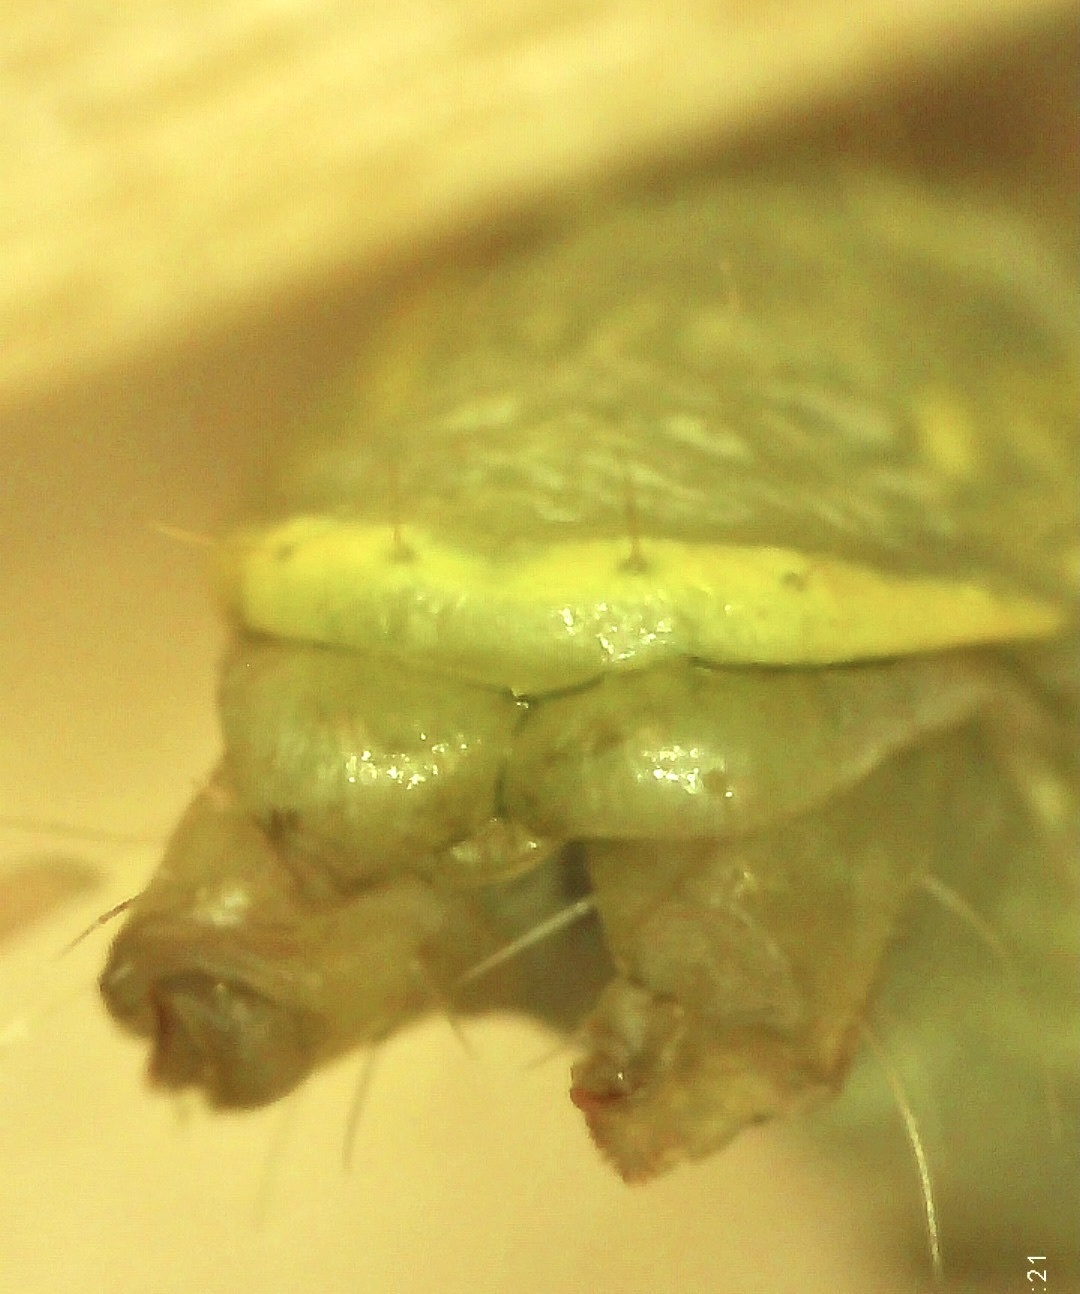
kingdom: Animalia
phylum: Arthropoda
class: Insecta
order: Lepidoptera
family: Notodontidae
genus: Nadata
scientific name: Nadata gibbosa
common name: White-dotted prominent
